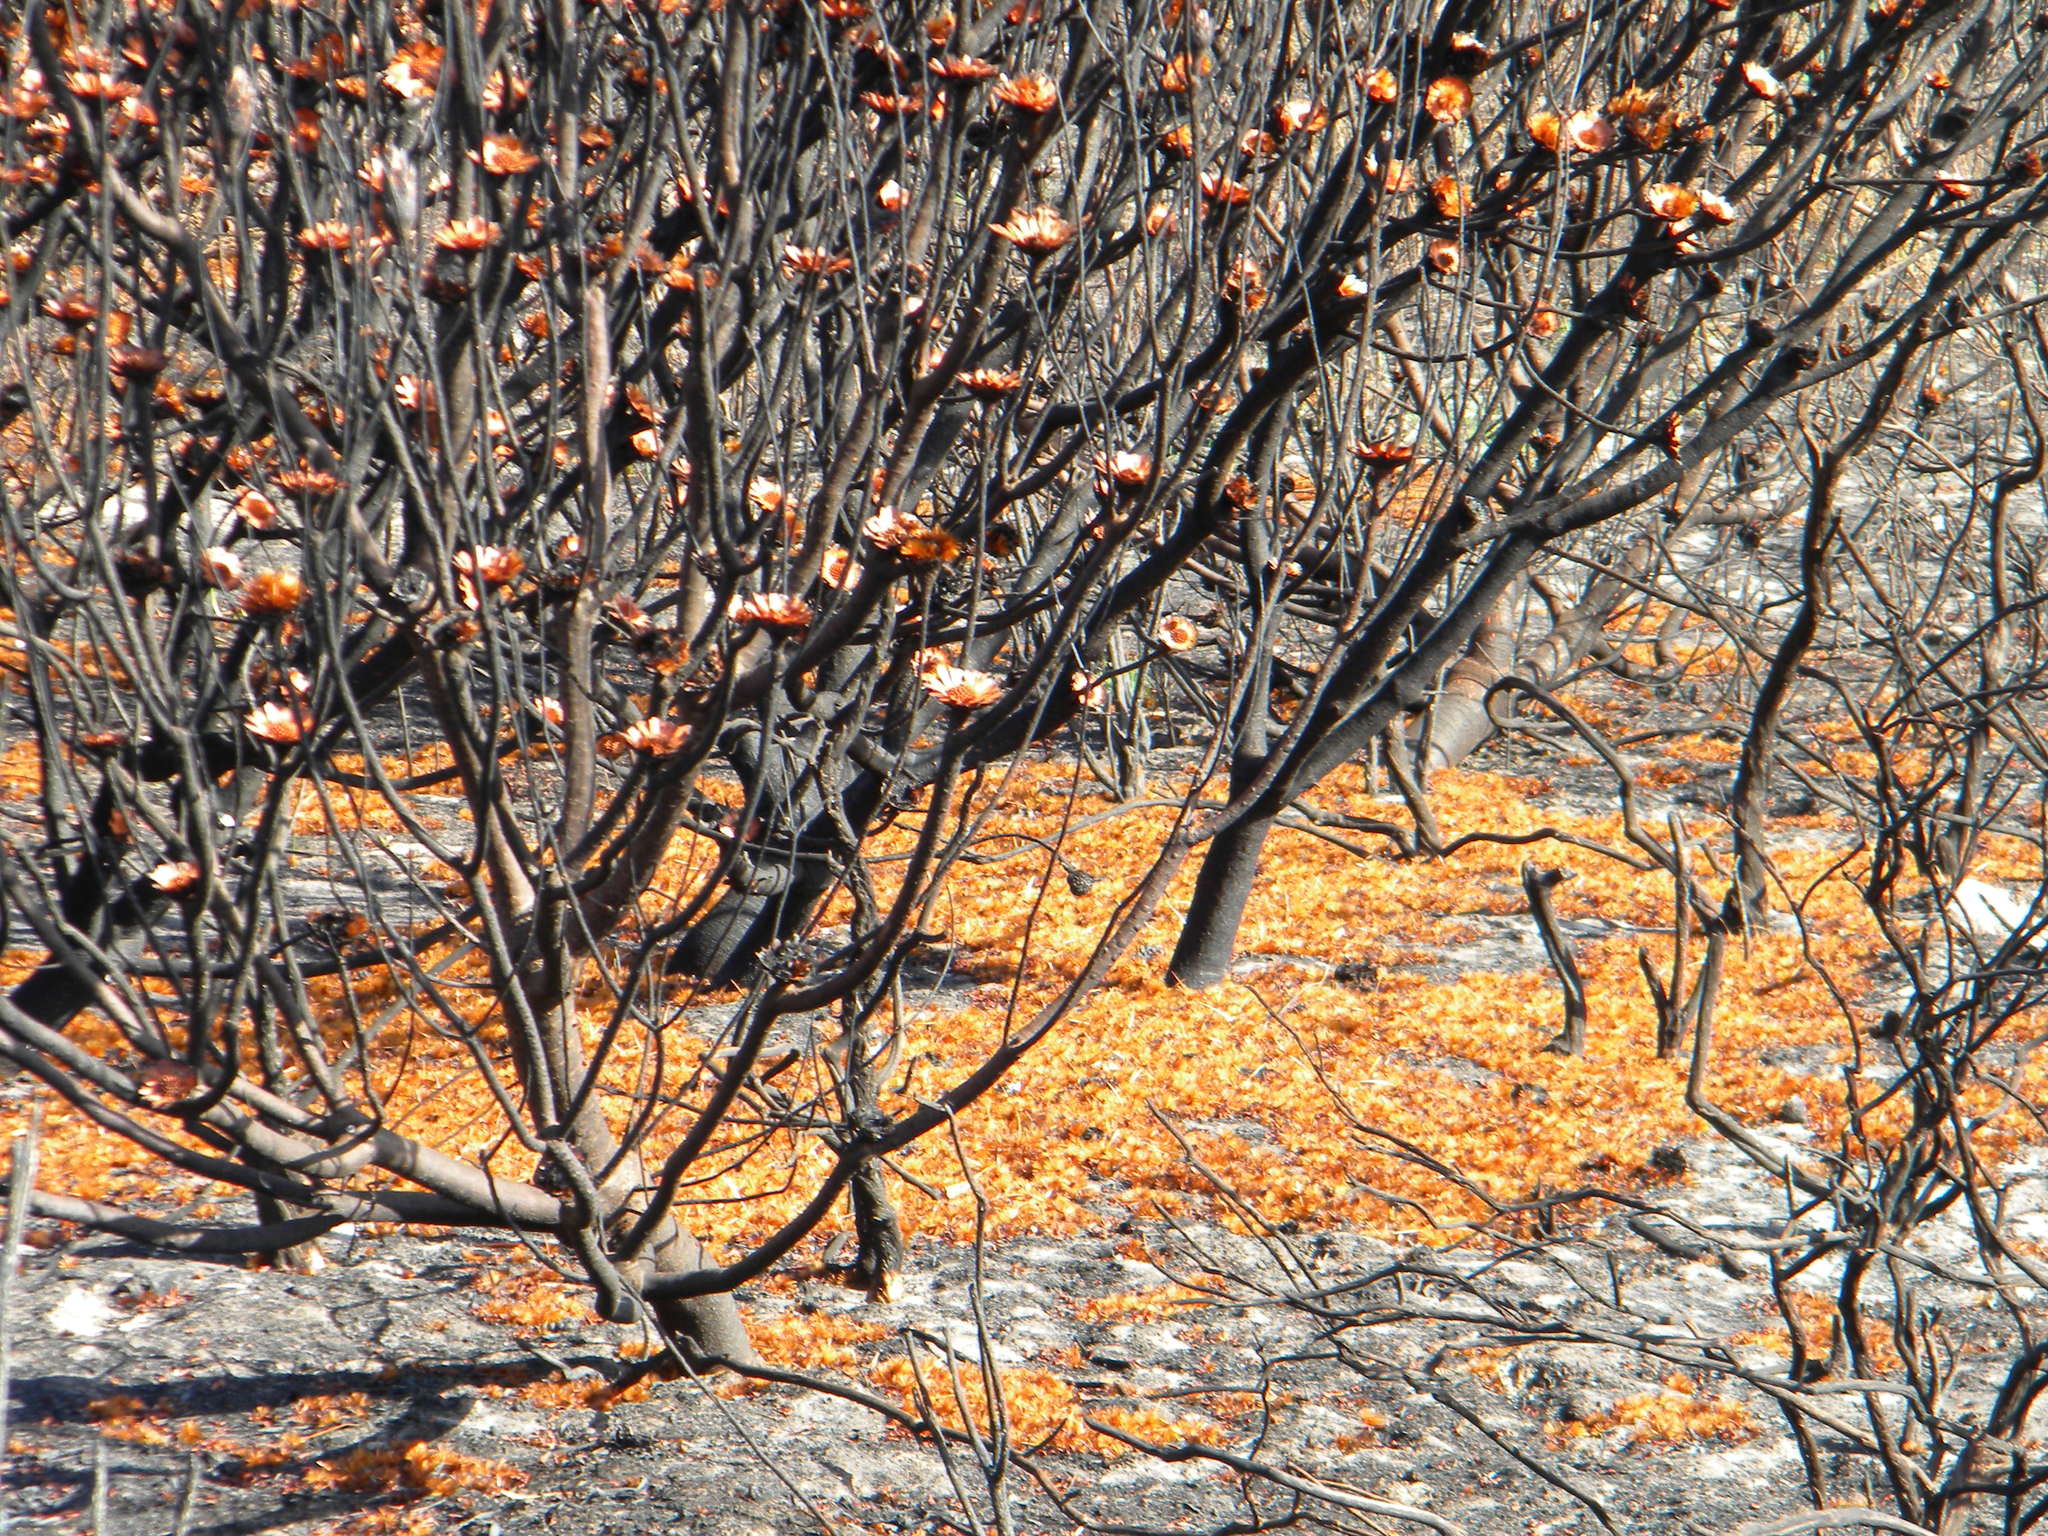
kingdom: Plantae
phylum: Tracheophyta
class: Magnoliopsida
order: Proteales
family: Proteaceae
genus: Protea
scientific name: Protea repens
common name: Sugarbush
